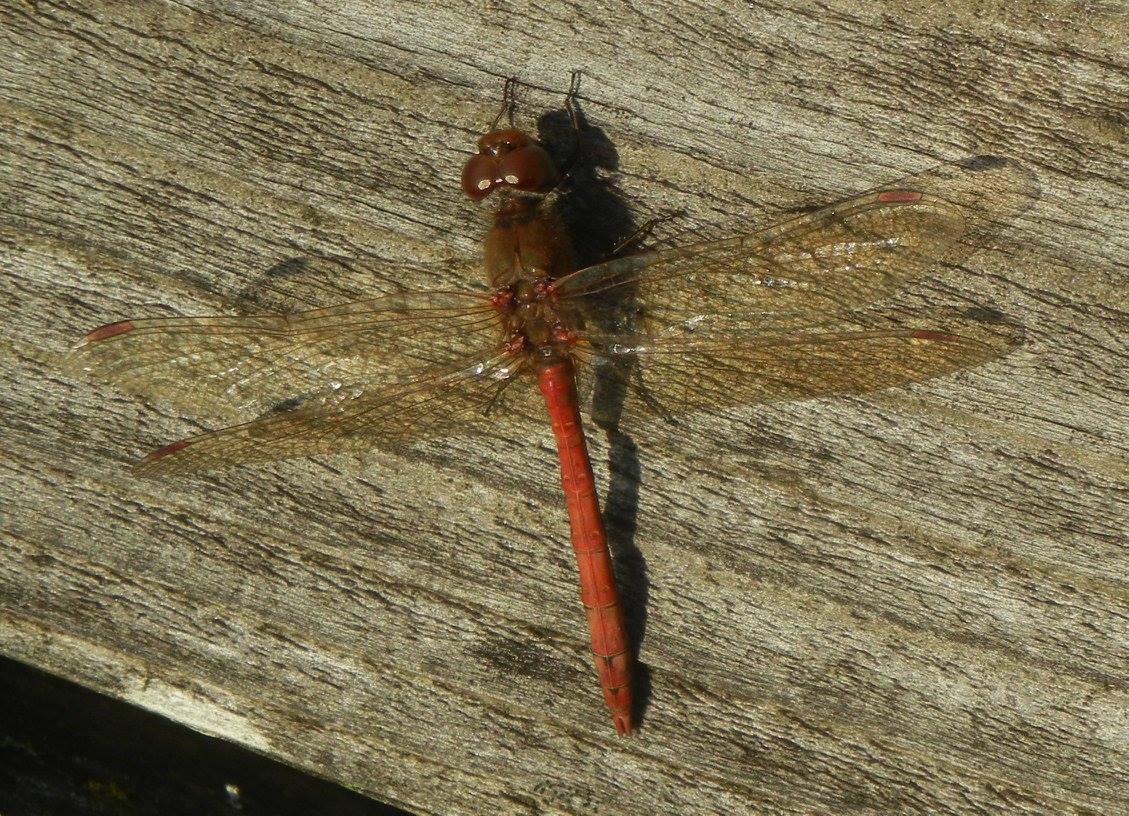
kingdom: Animalia
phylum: Arthropoda
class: Insecta
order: Odonata
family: Libellulidae
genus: Sympetrum
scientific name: Sympetrum striolatum
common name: Common darter
